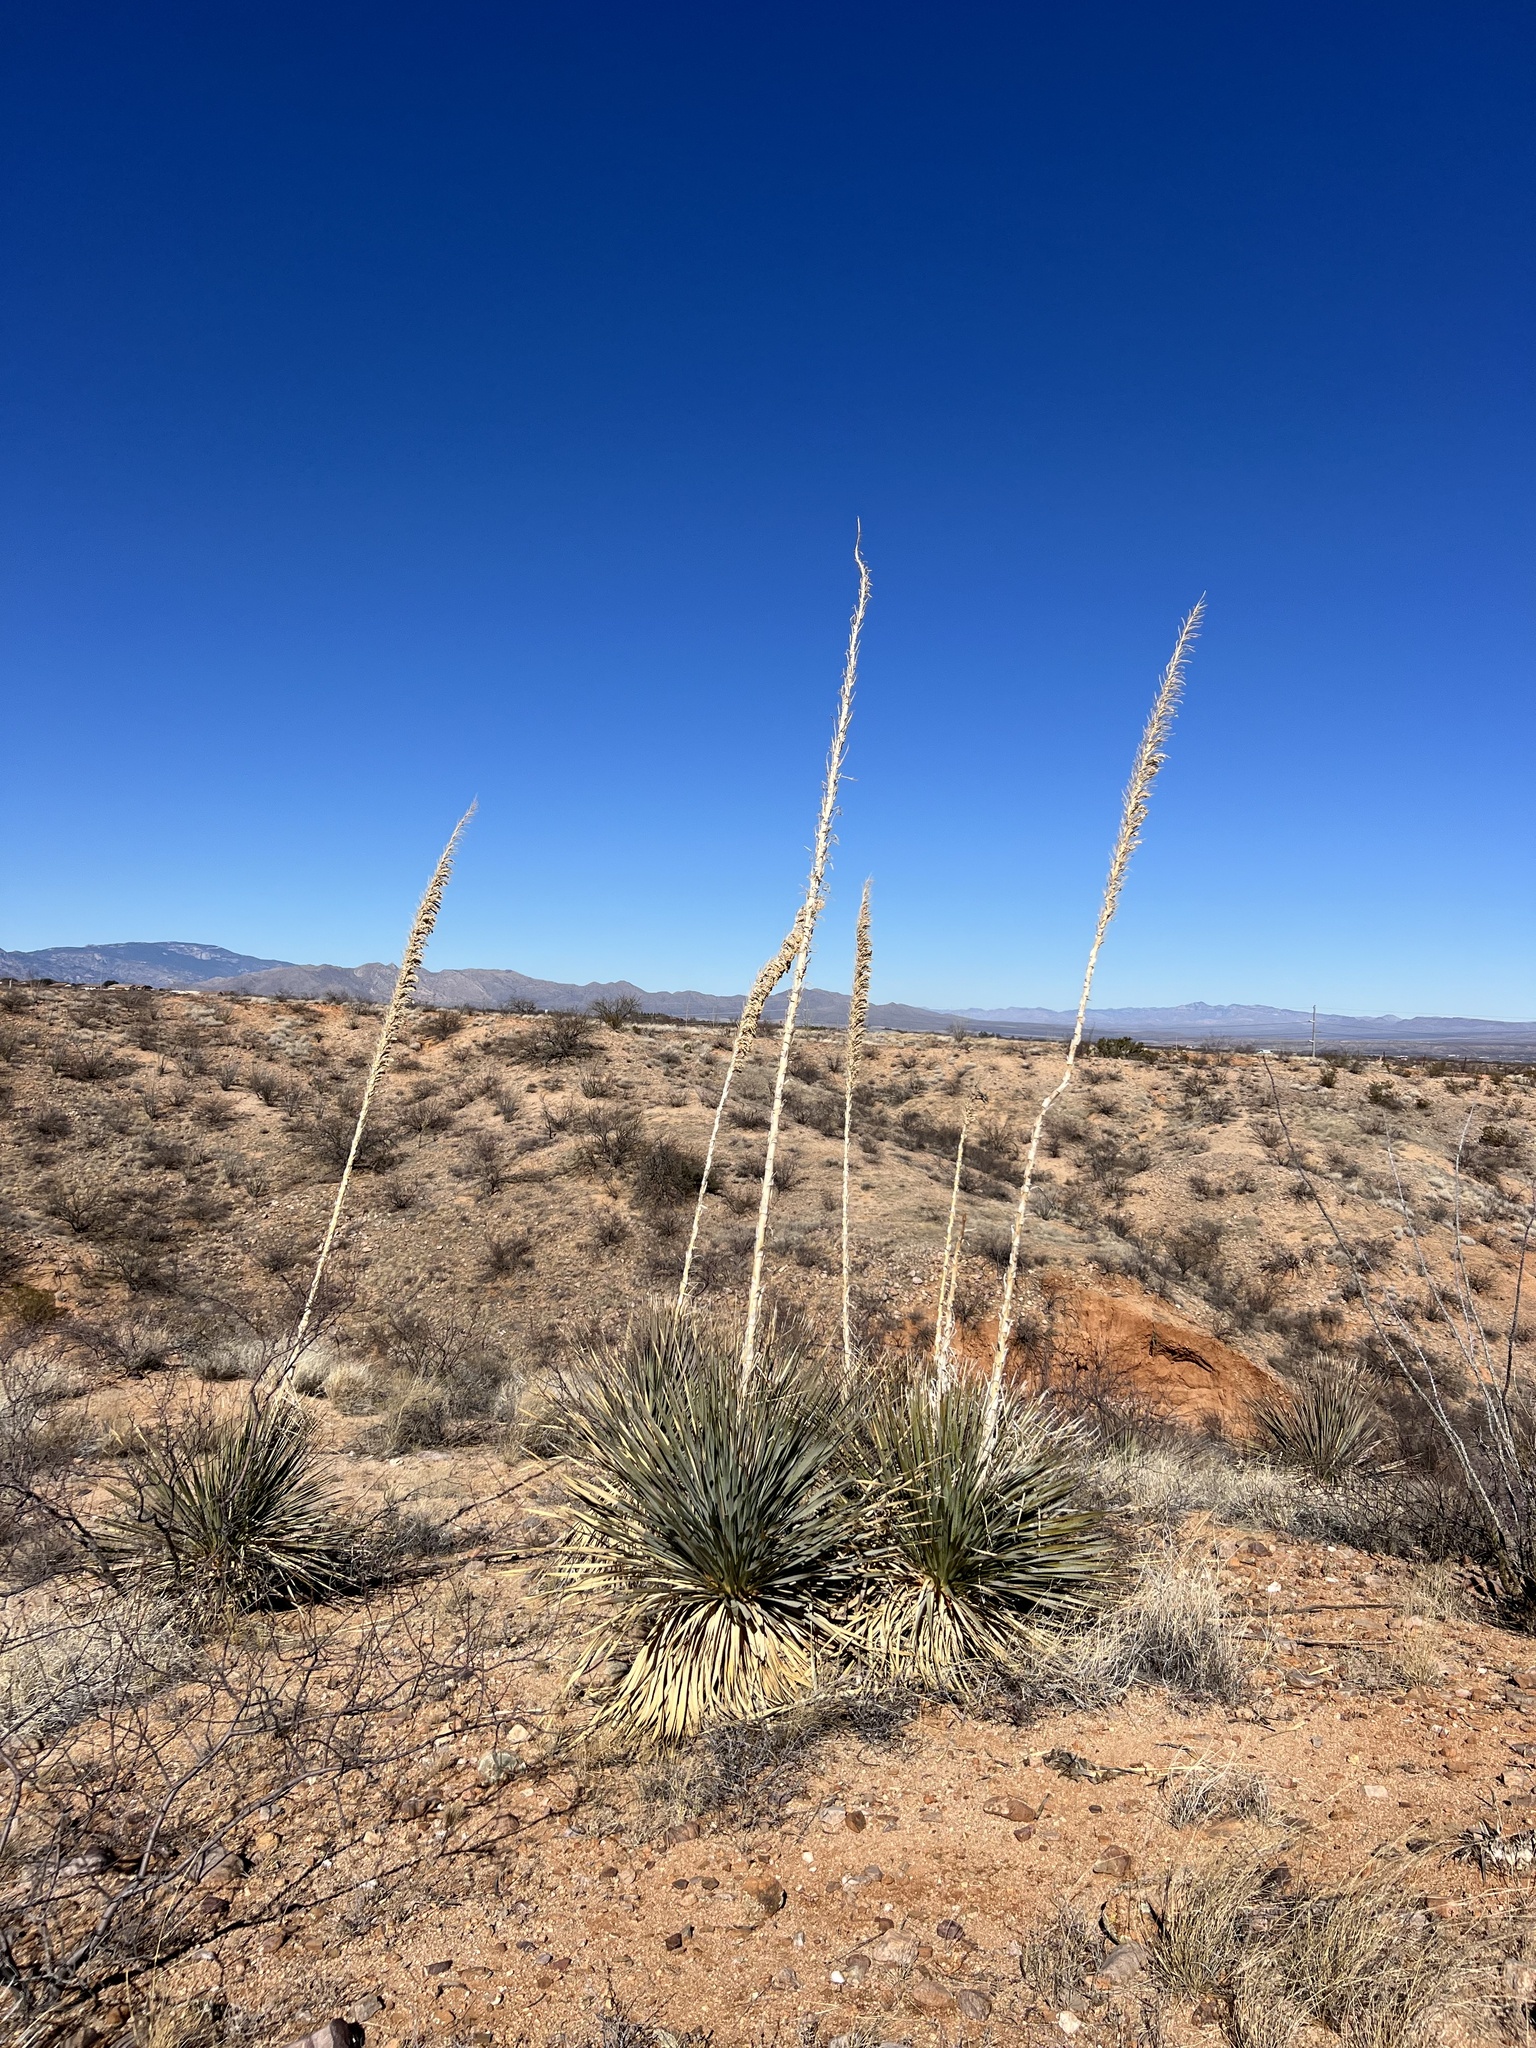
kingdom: Plantae
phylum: Tracheophyta
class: Liliopsida
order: Asparagales
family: Asparagaceae
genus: Dasylirion
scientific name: Dasylirion wheeleri
